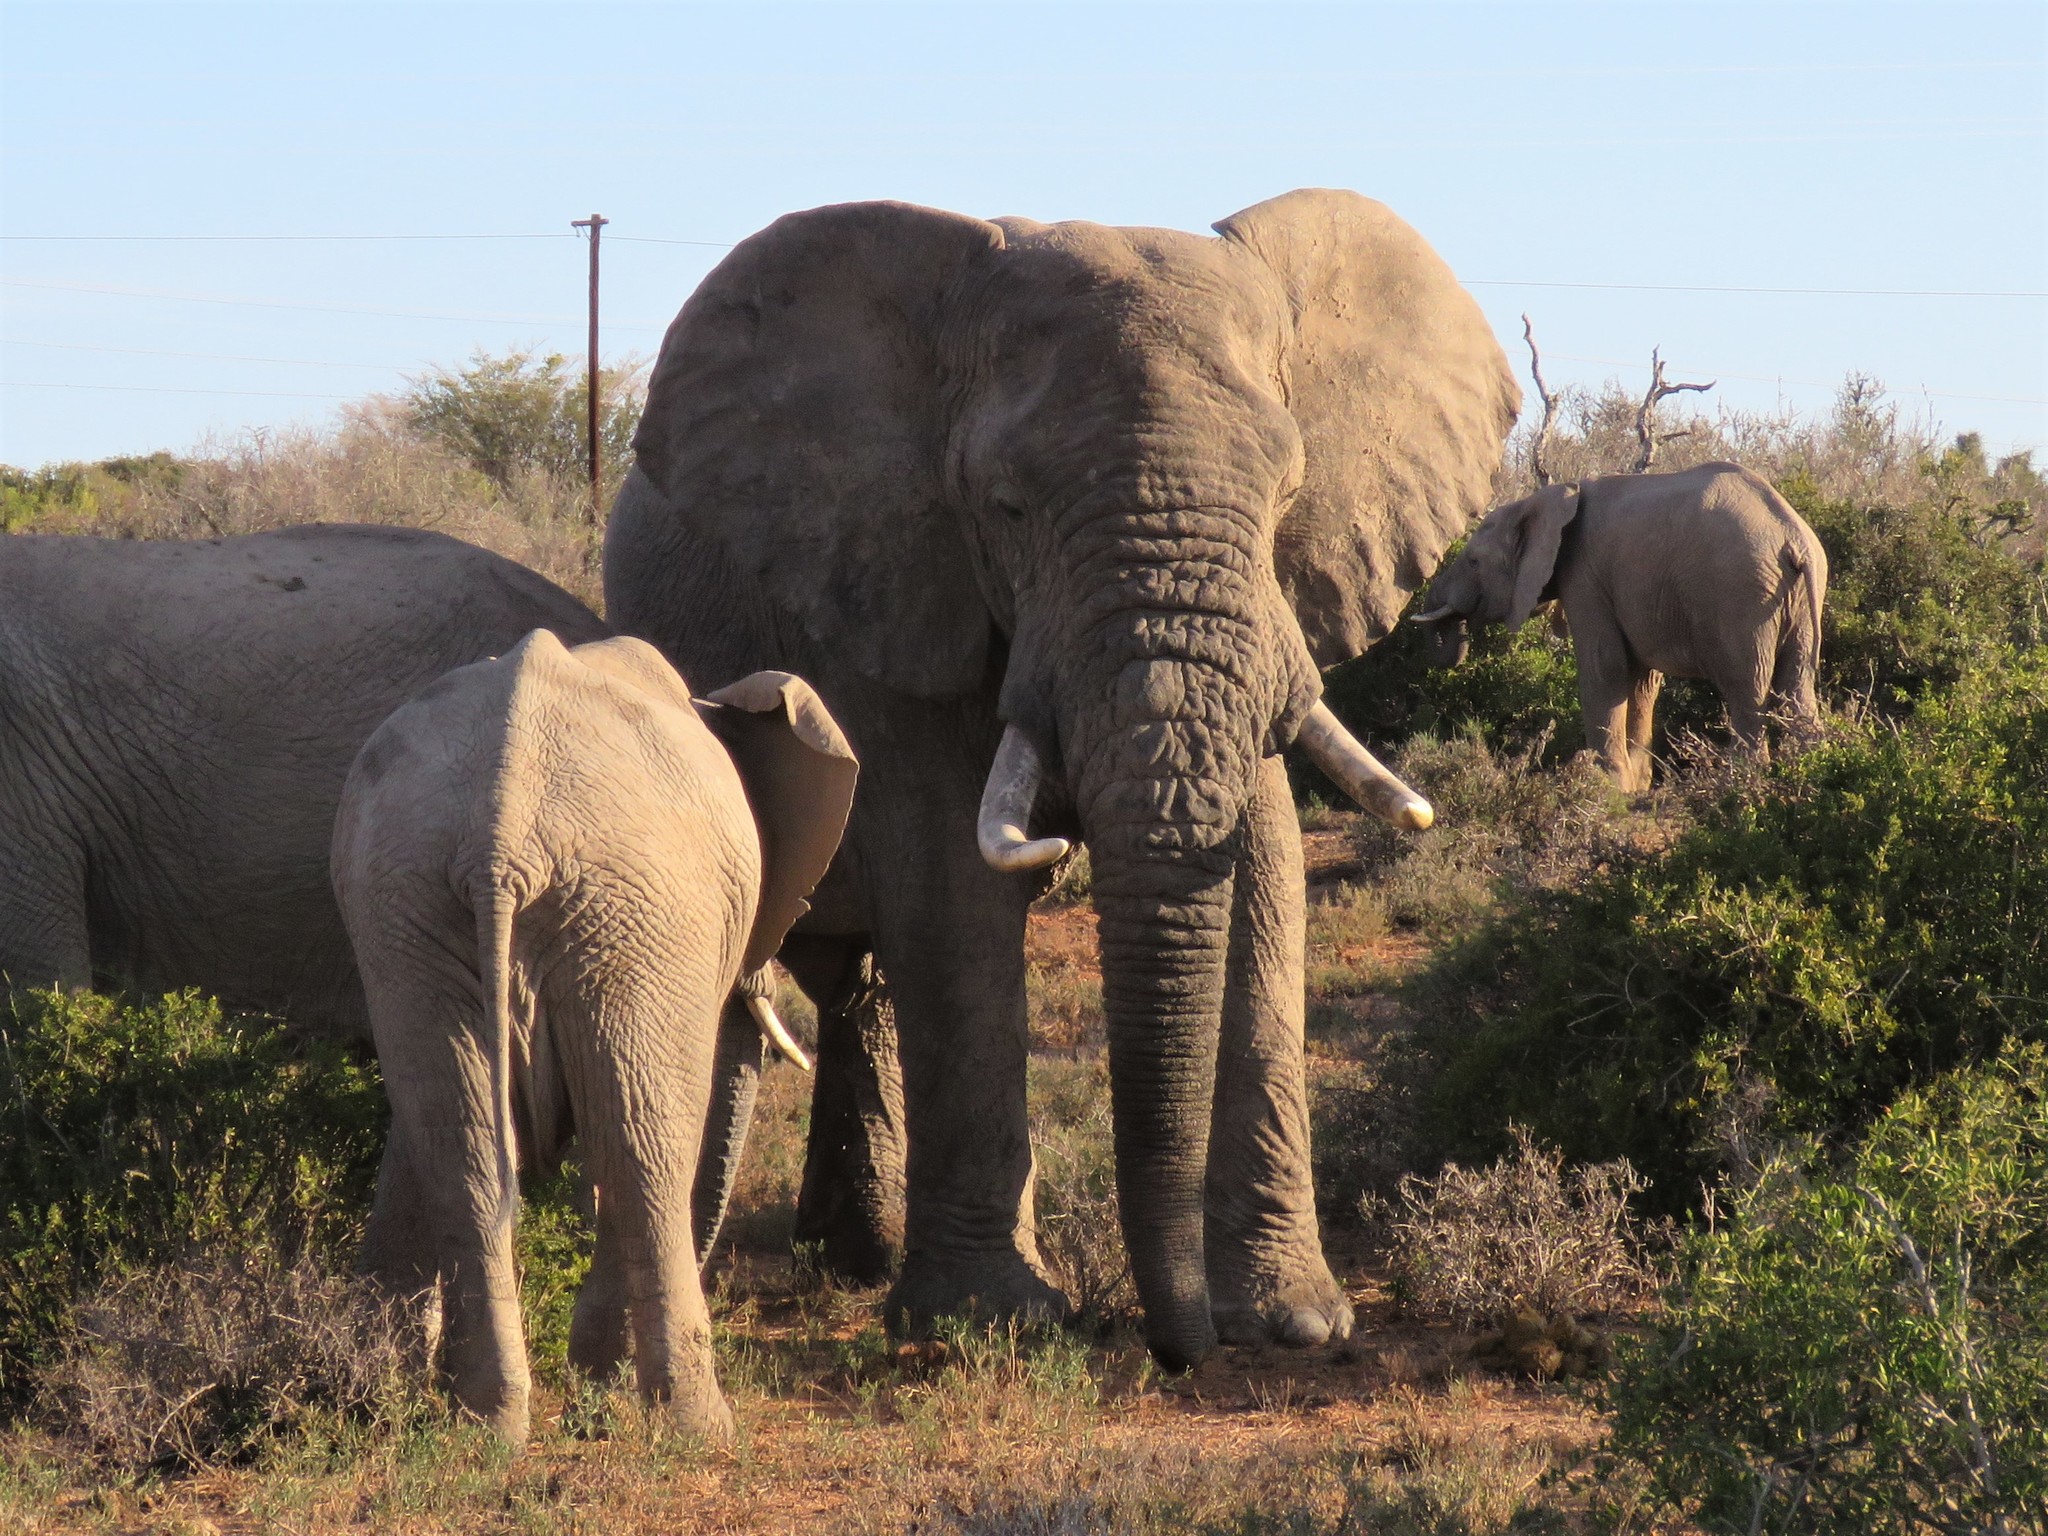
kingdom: Animalia
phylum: Chordata
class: Mammalia
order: Proboscidea
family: Elephantidae
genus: Loxodonta
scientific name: Loxodonta africana
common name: African elephant
